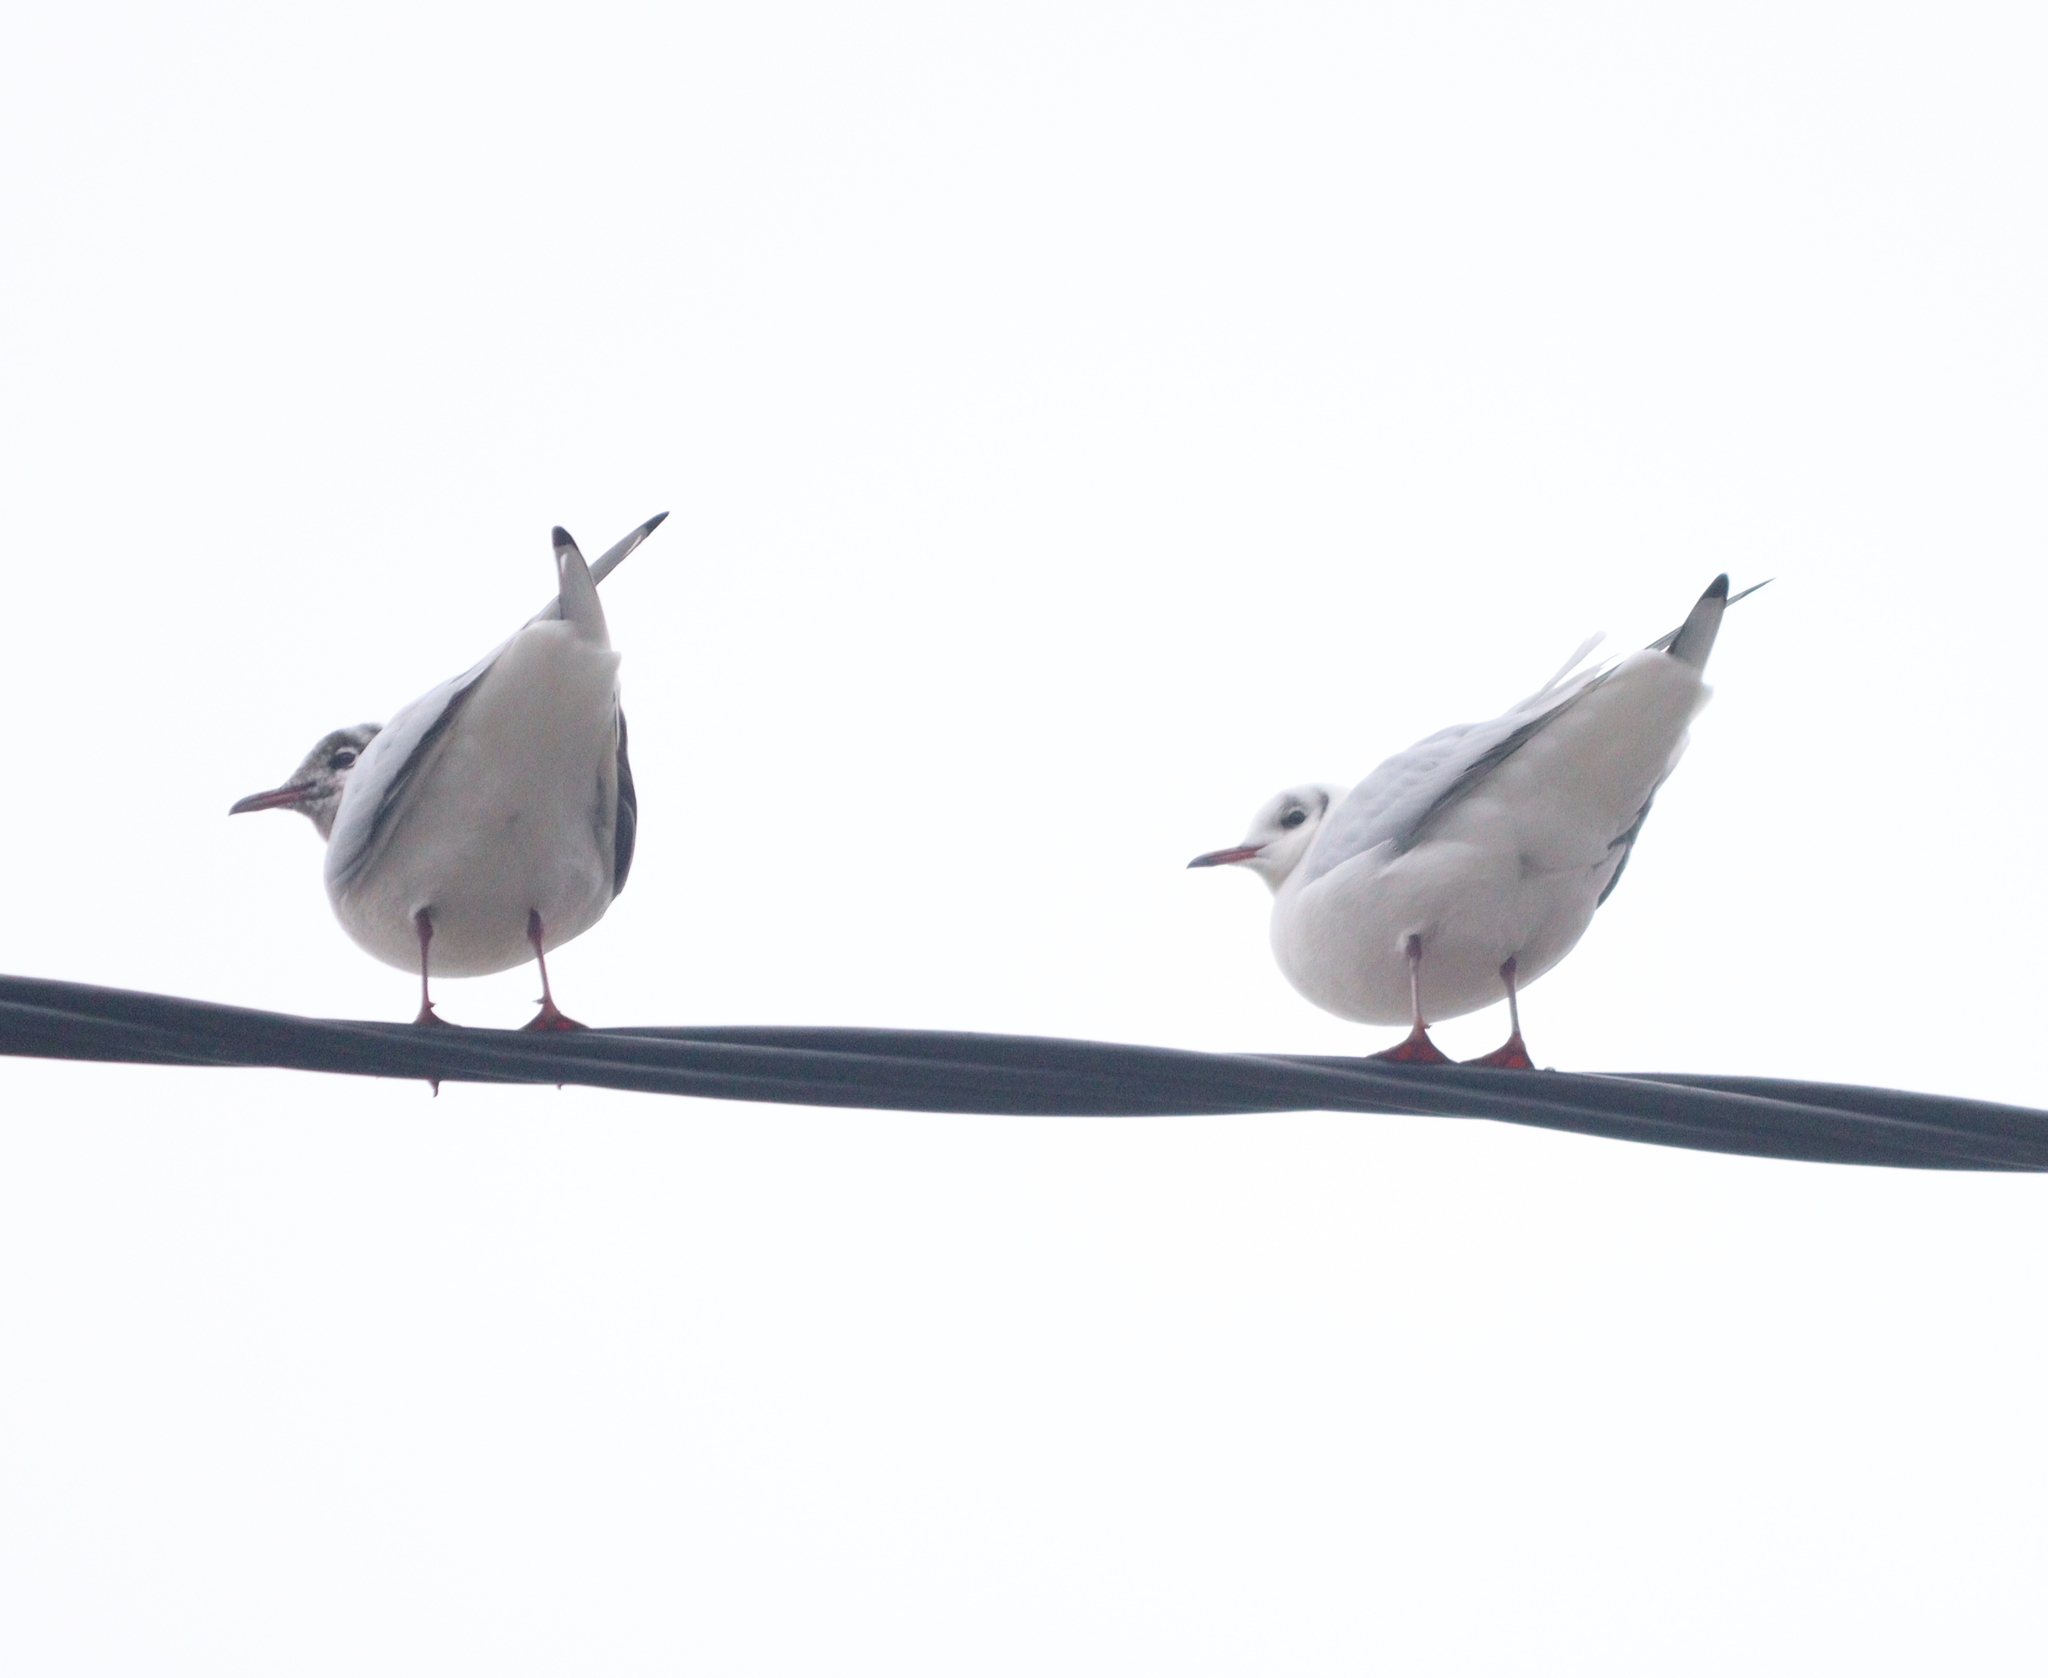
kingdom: Animalia
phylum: Chordata
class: Aves
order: Charadriiformes
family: Laridae
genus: Chroicocephalus
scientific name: Chroicocephalus ridibundus
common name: Black-headed gull
